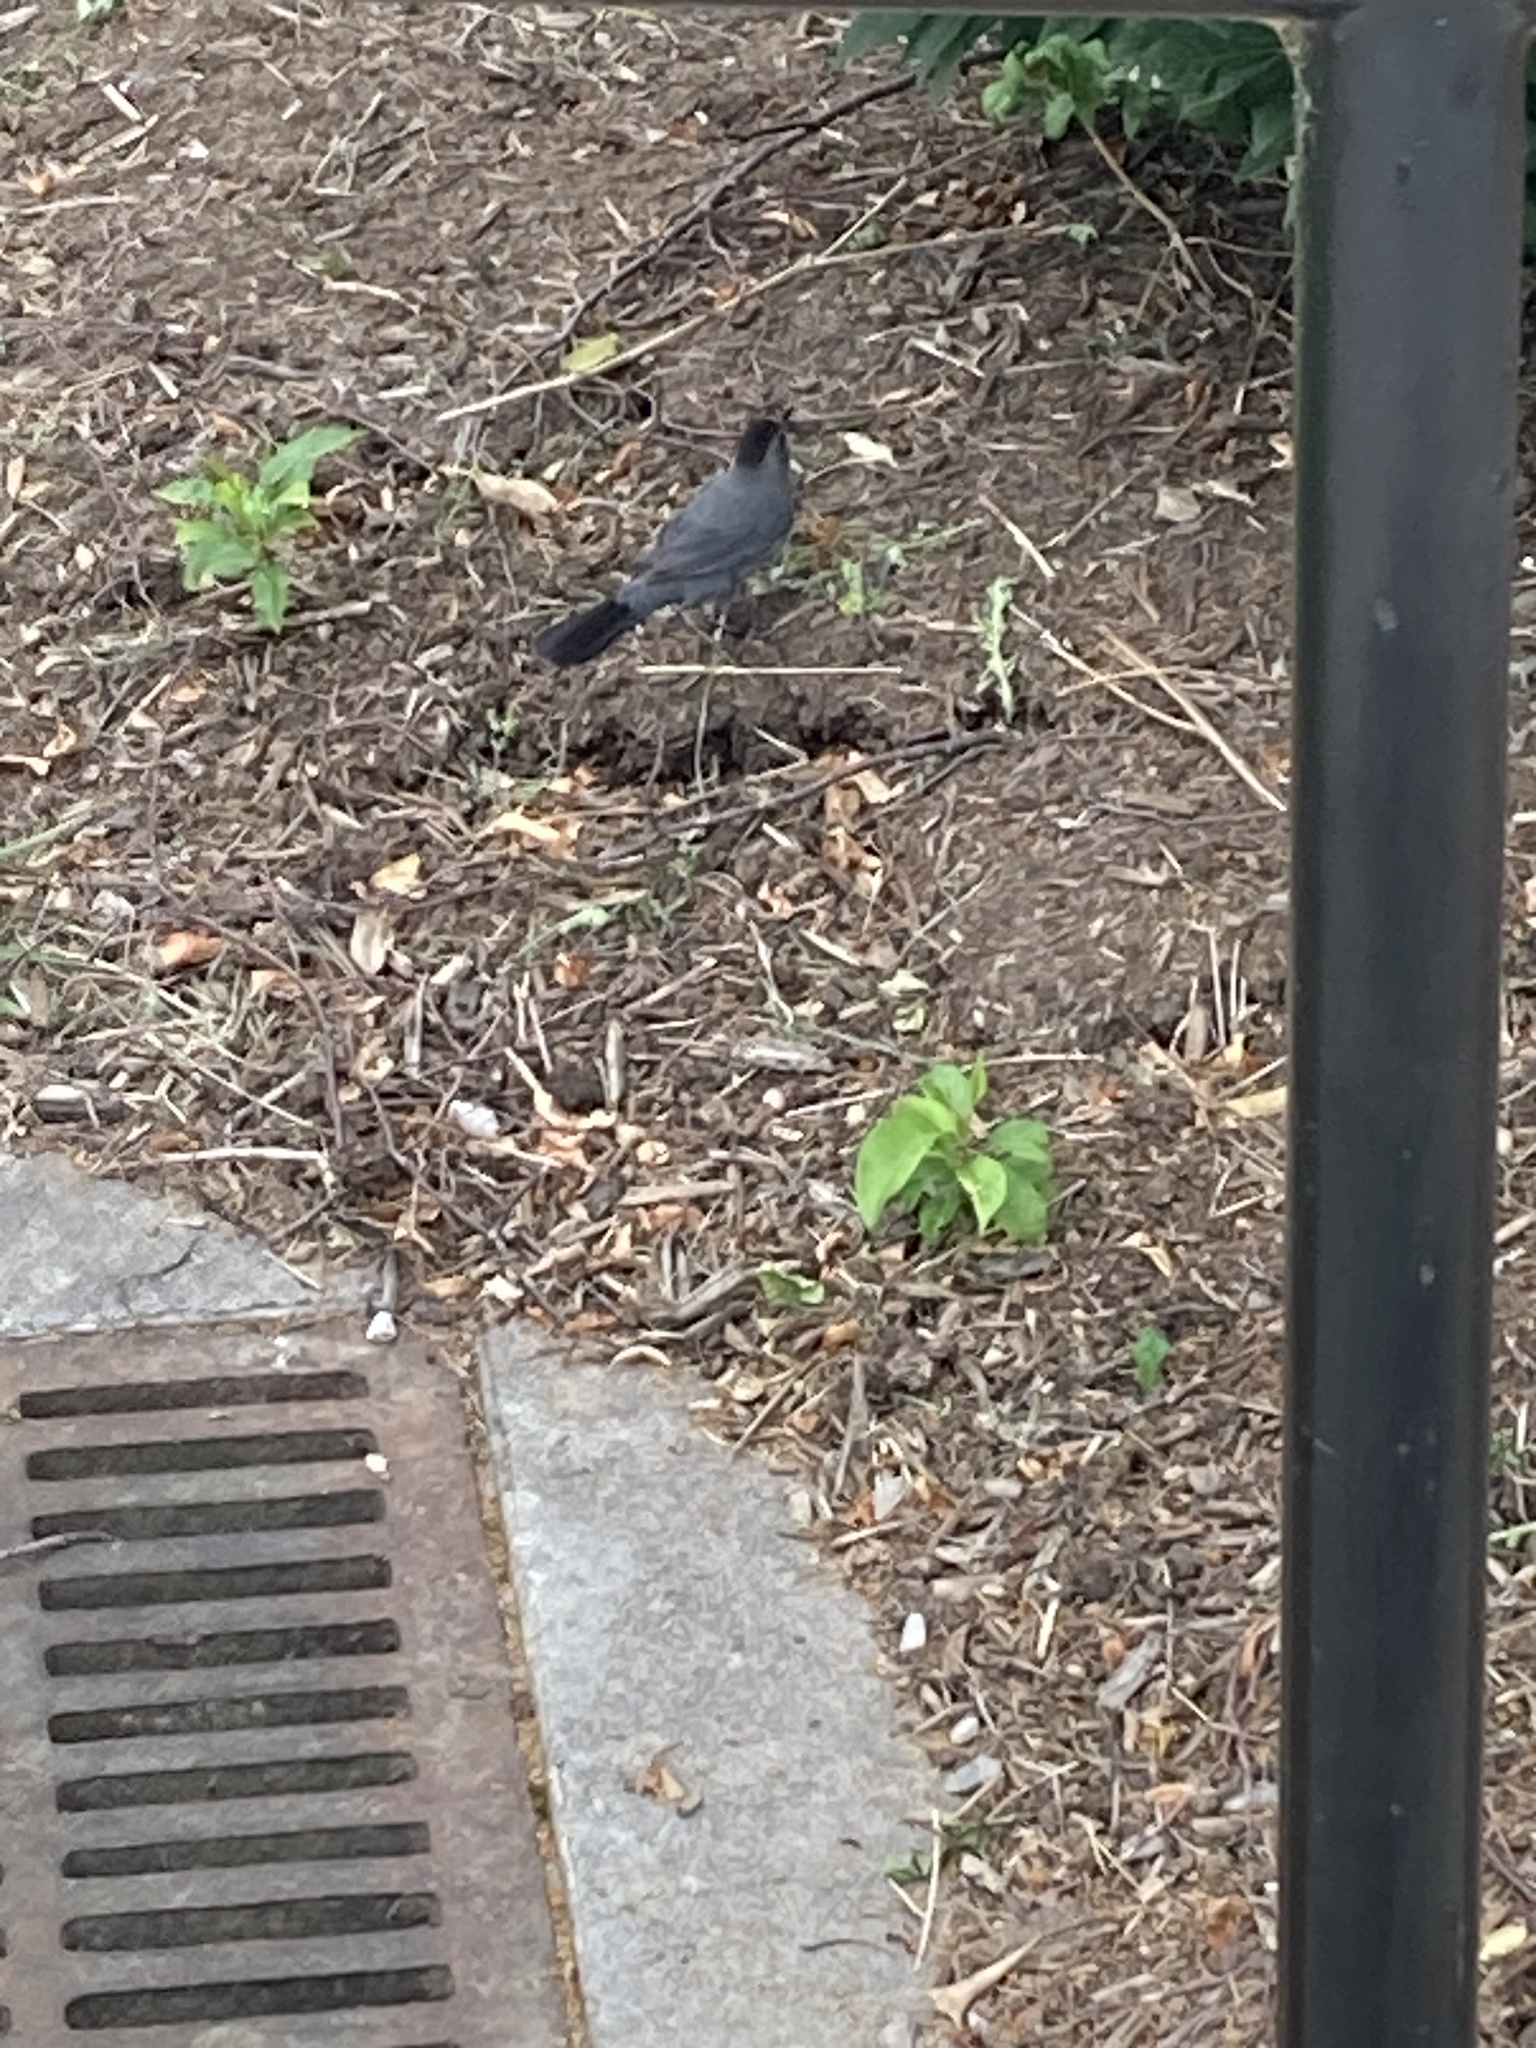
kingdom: Animalia
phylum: Chordata
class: Aves
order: Passeriformes
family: Mimidae
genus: Dumetella
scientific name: Dumetella carolinensis
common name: Gray catbird
